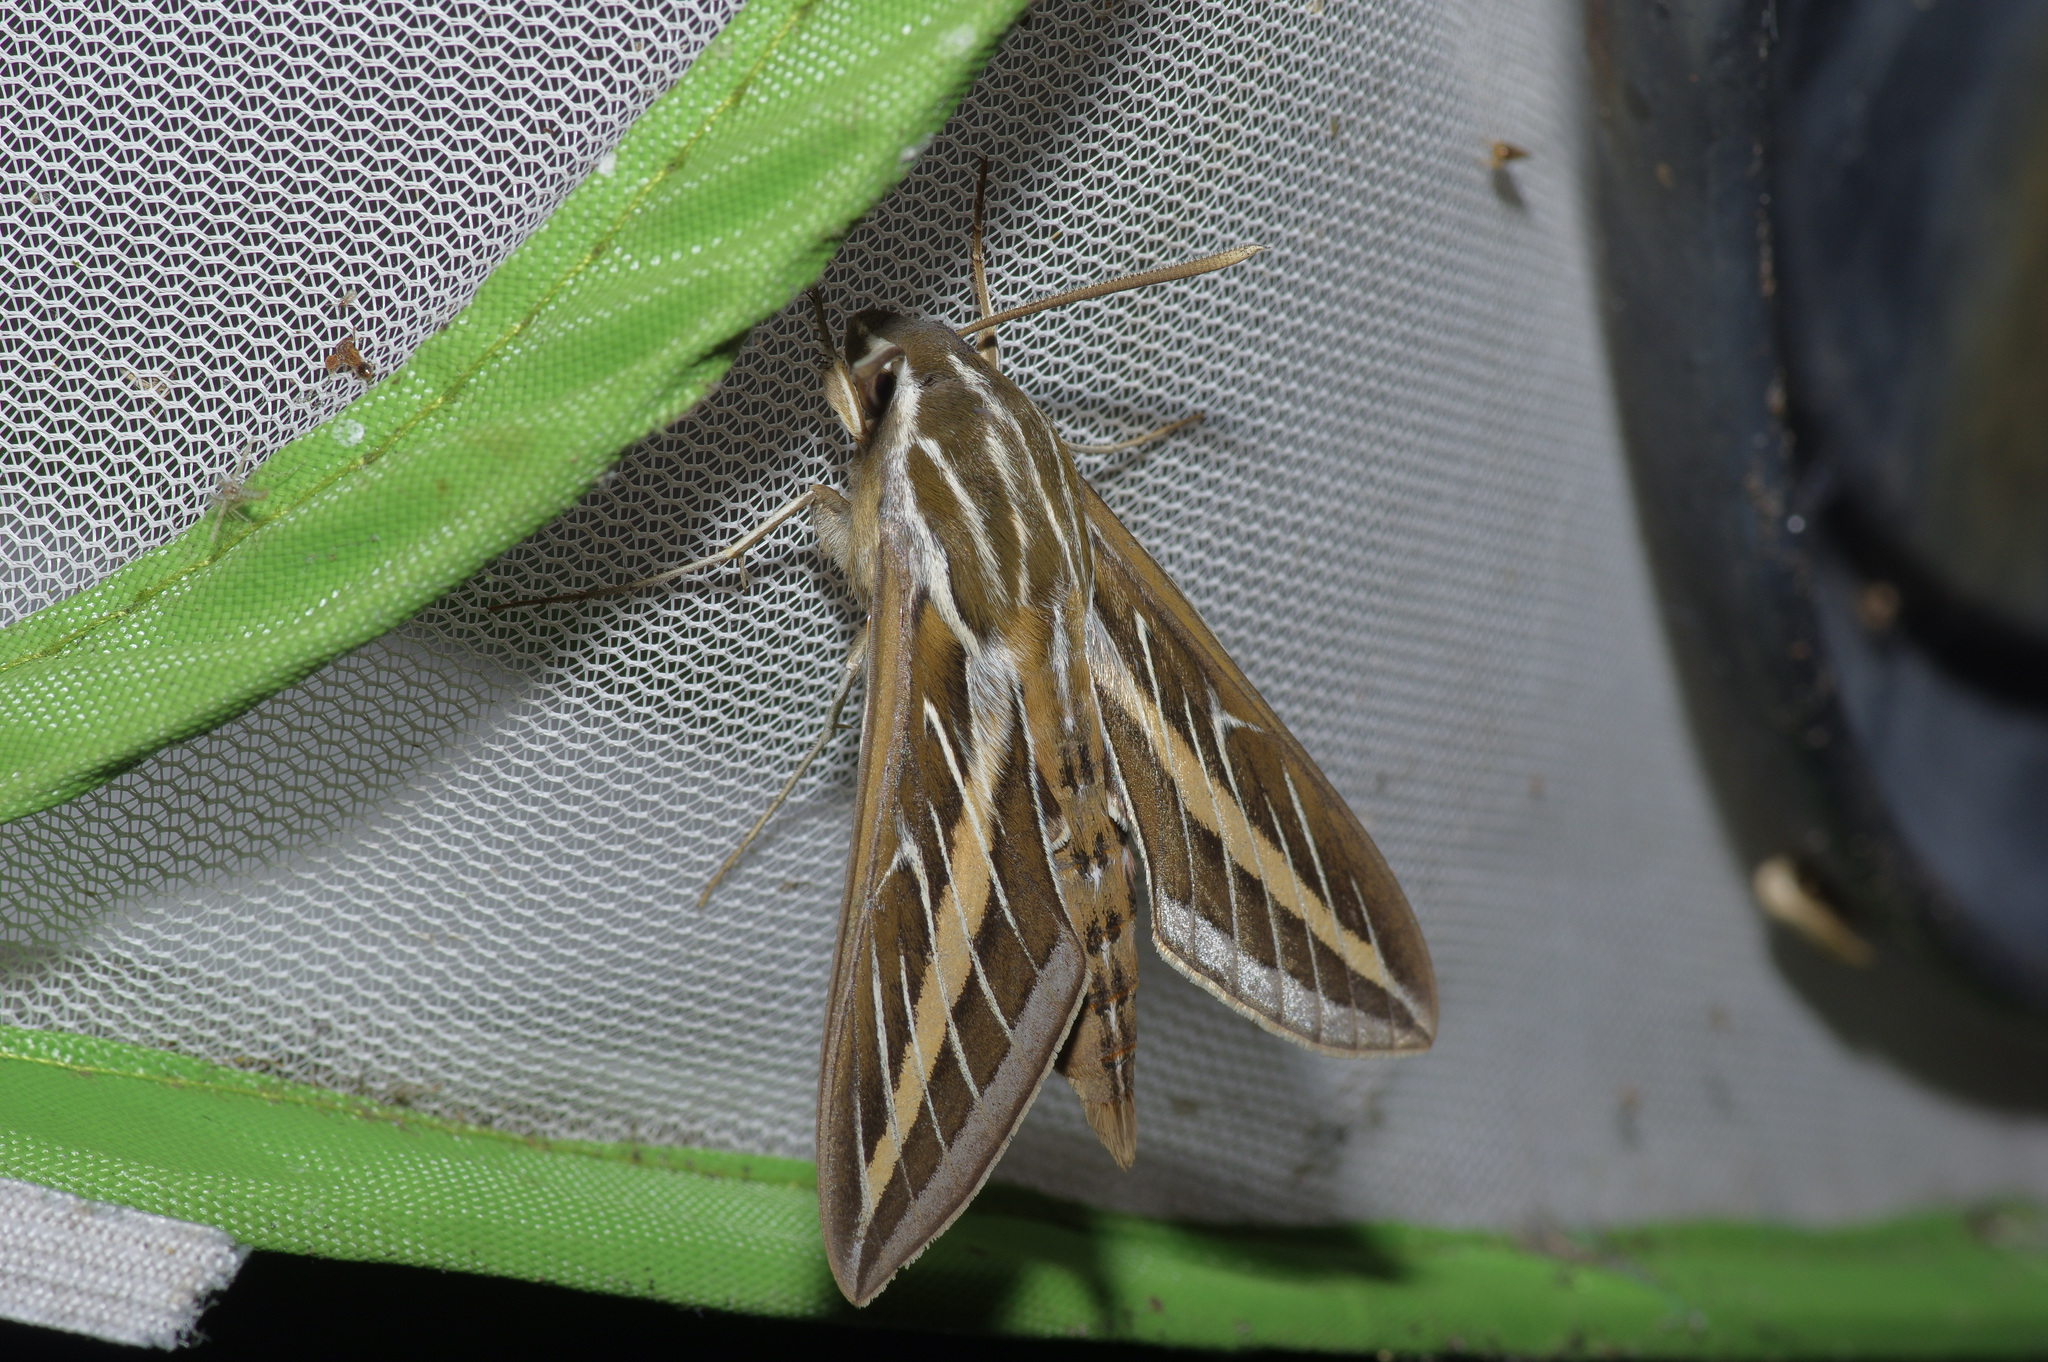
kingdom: Animalia
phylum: Arthropoda
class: Insecta
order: Lepidoptera
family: Sphingidae
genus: Hyles
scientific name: Hyles lineata
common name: White-lined sphinx
